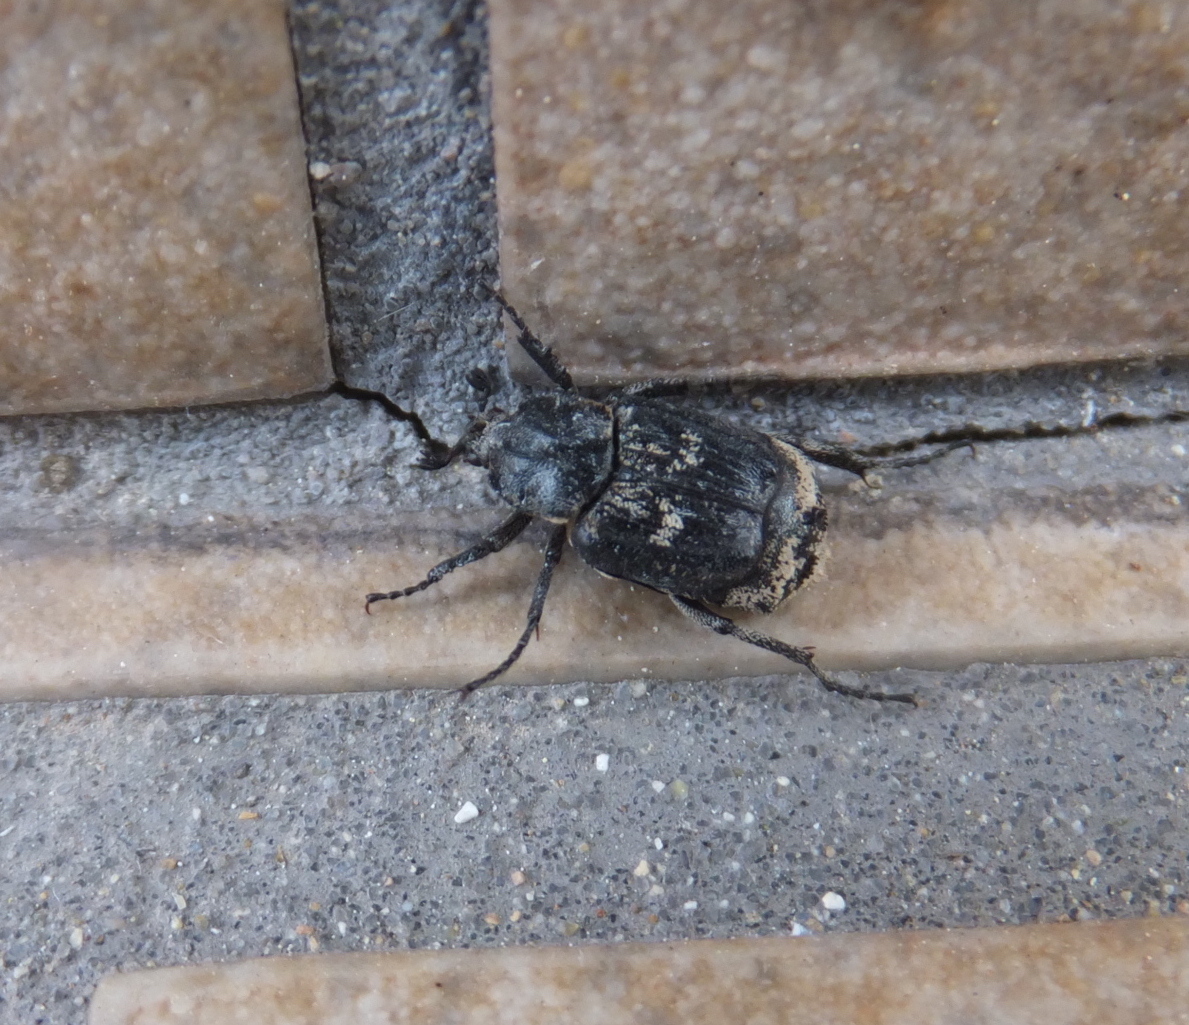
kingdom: Animalia
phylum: Arthropoda
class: Insecta
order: Coleoptera
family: Scarabaeidae
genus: Valgus
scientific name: Valgus hemipterus
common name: Bug flower chafer
